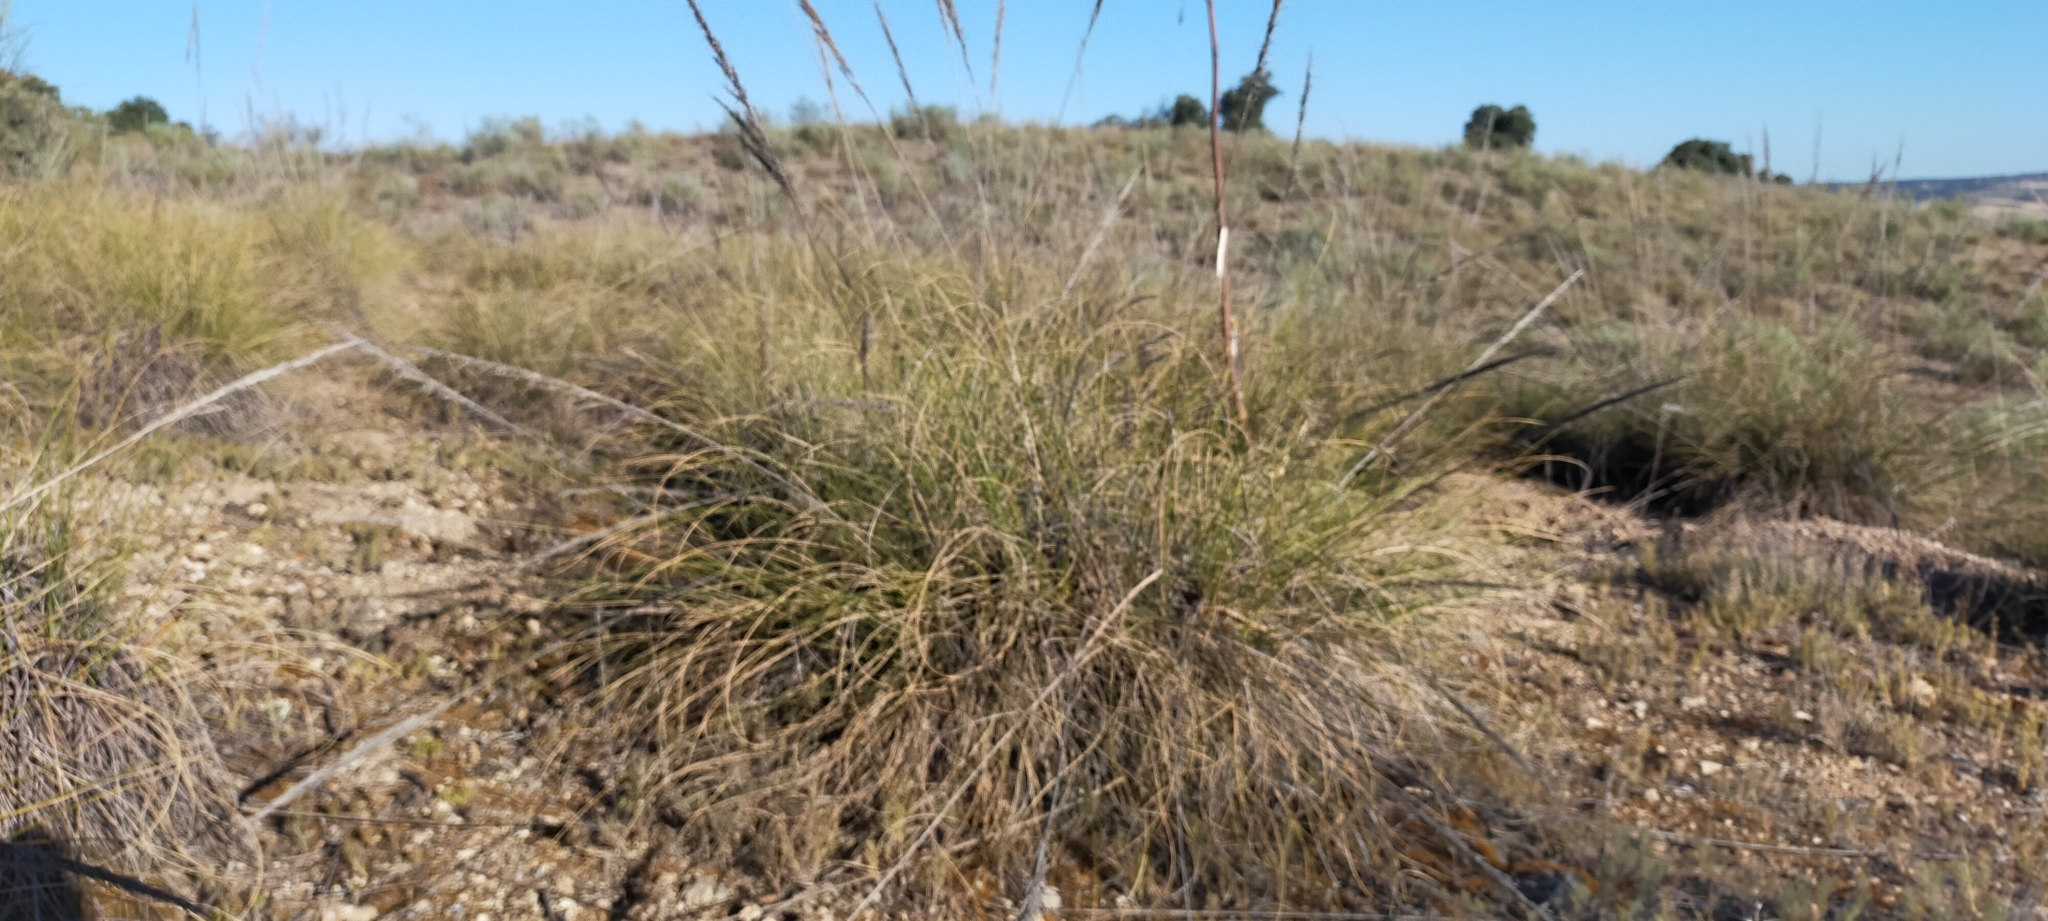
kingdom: Plantae
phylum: Tracheophyta
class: Liliopsida
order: Poales
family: Poaceae
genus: Macrochloa
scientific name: Macrochloa tenacissima
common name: Alfa grass
